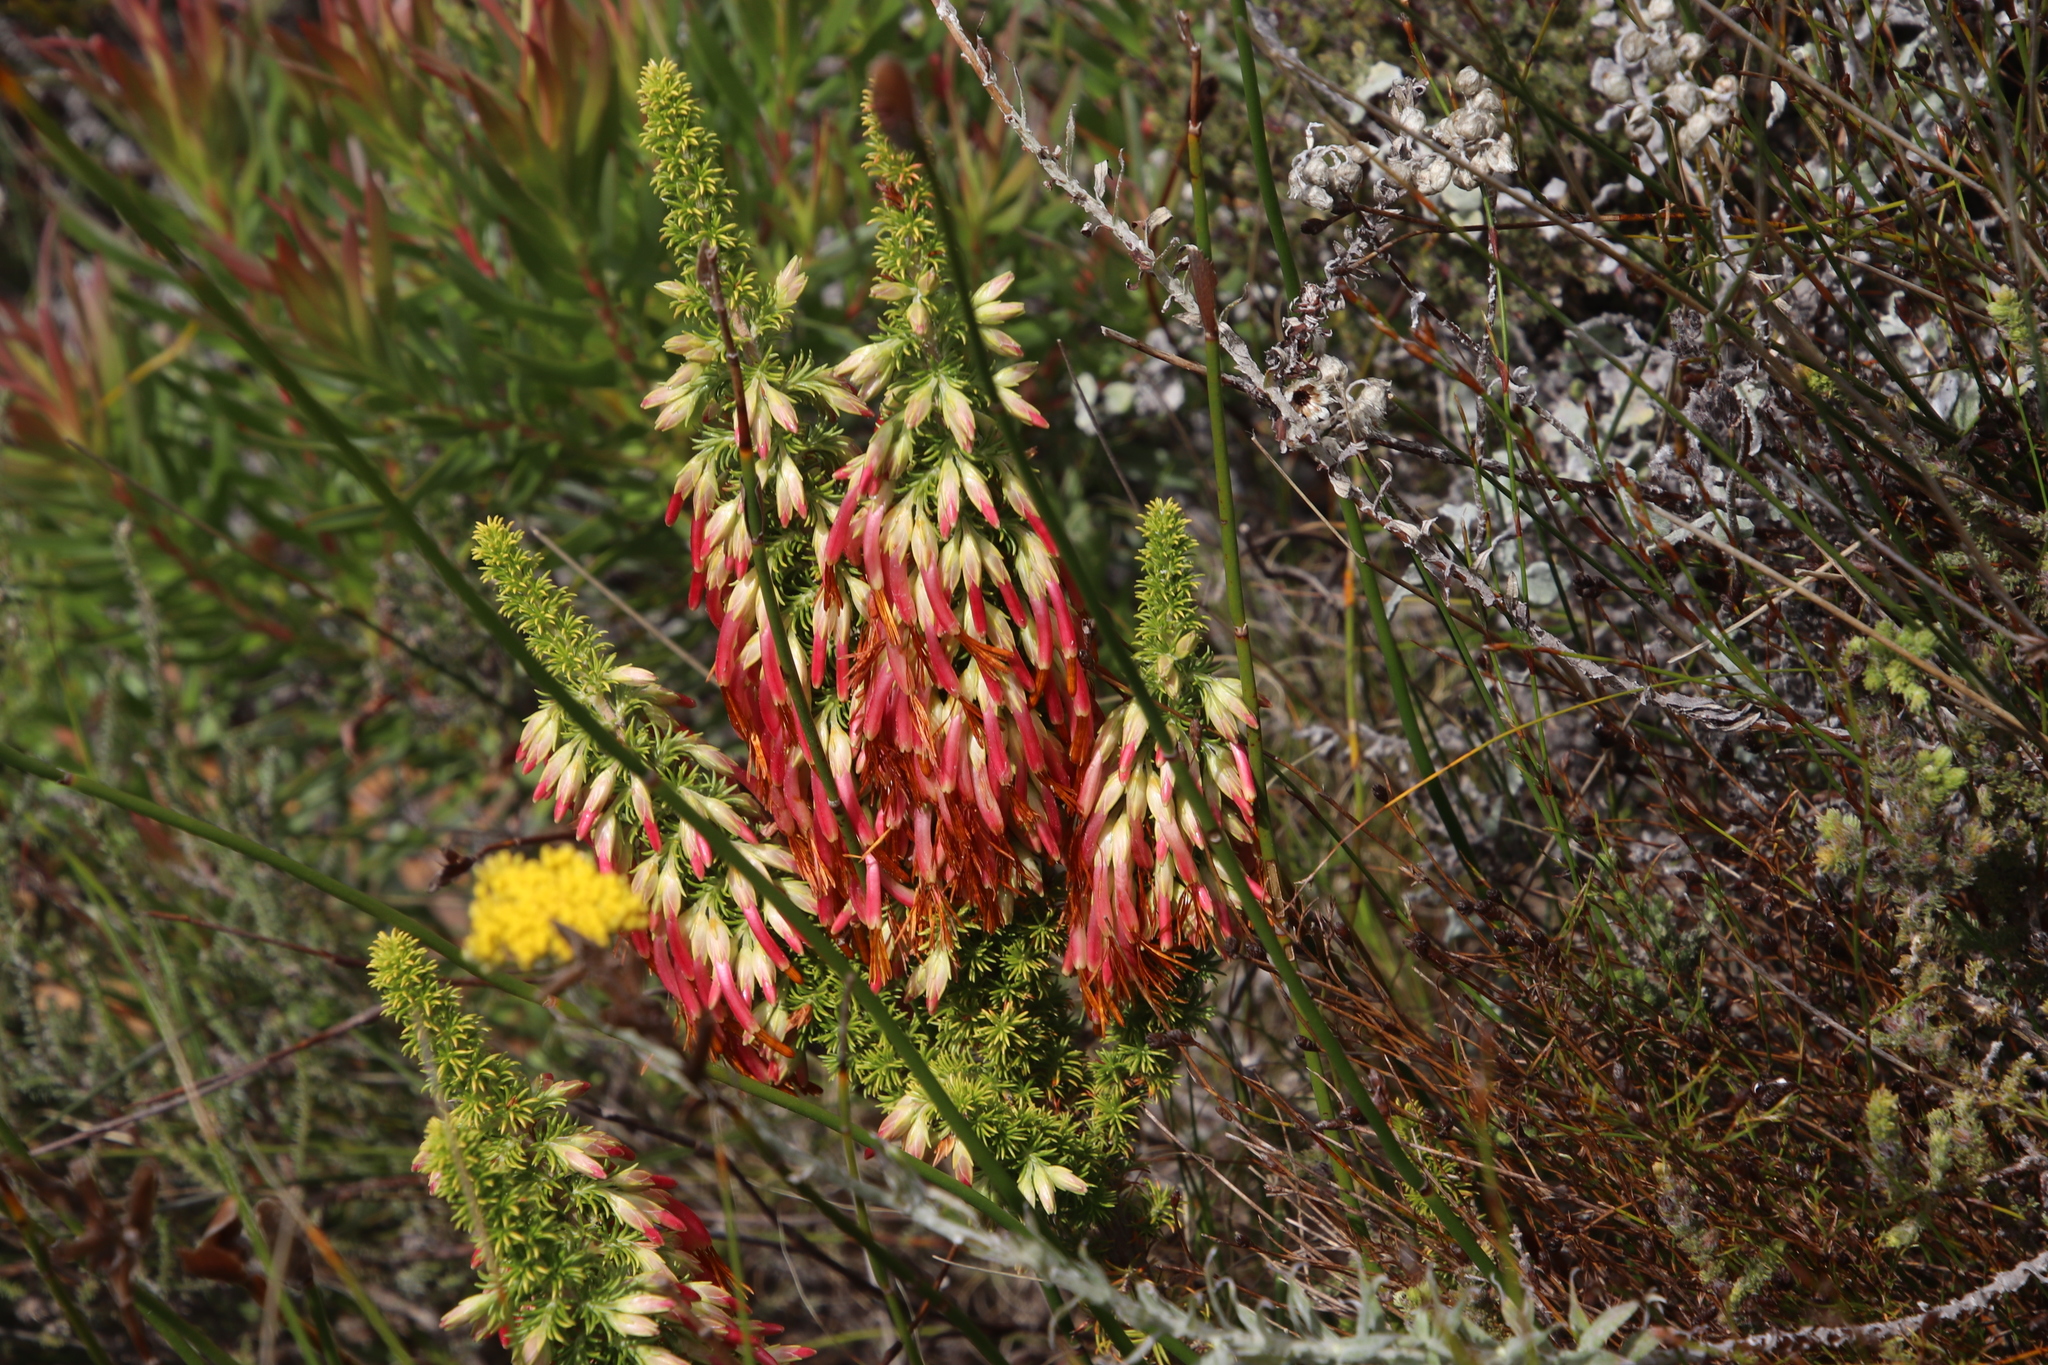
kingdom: Plantae
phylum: Tracheophyta
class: Magnoliopsida
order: Ericales
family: Ericaceae
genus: Erica
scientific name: Erica coccinea
